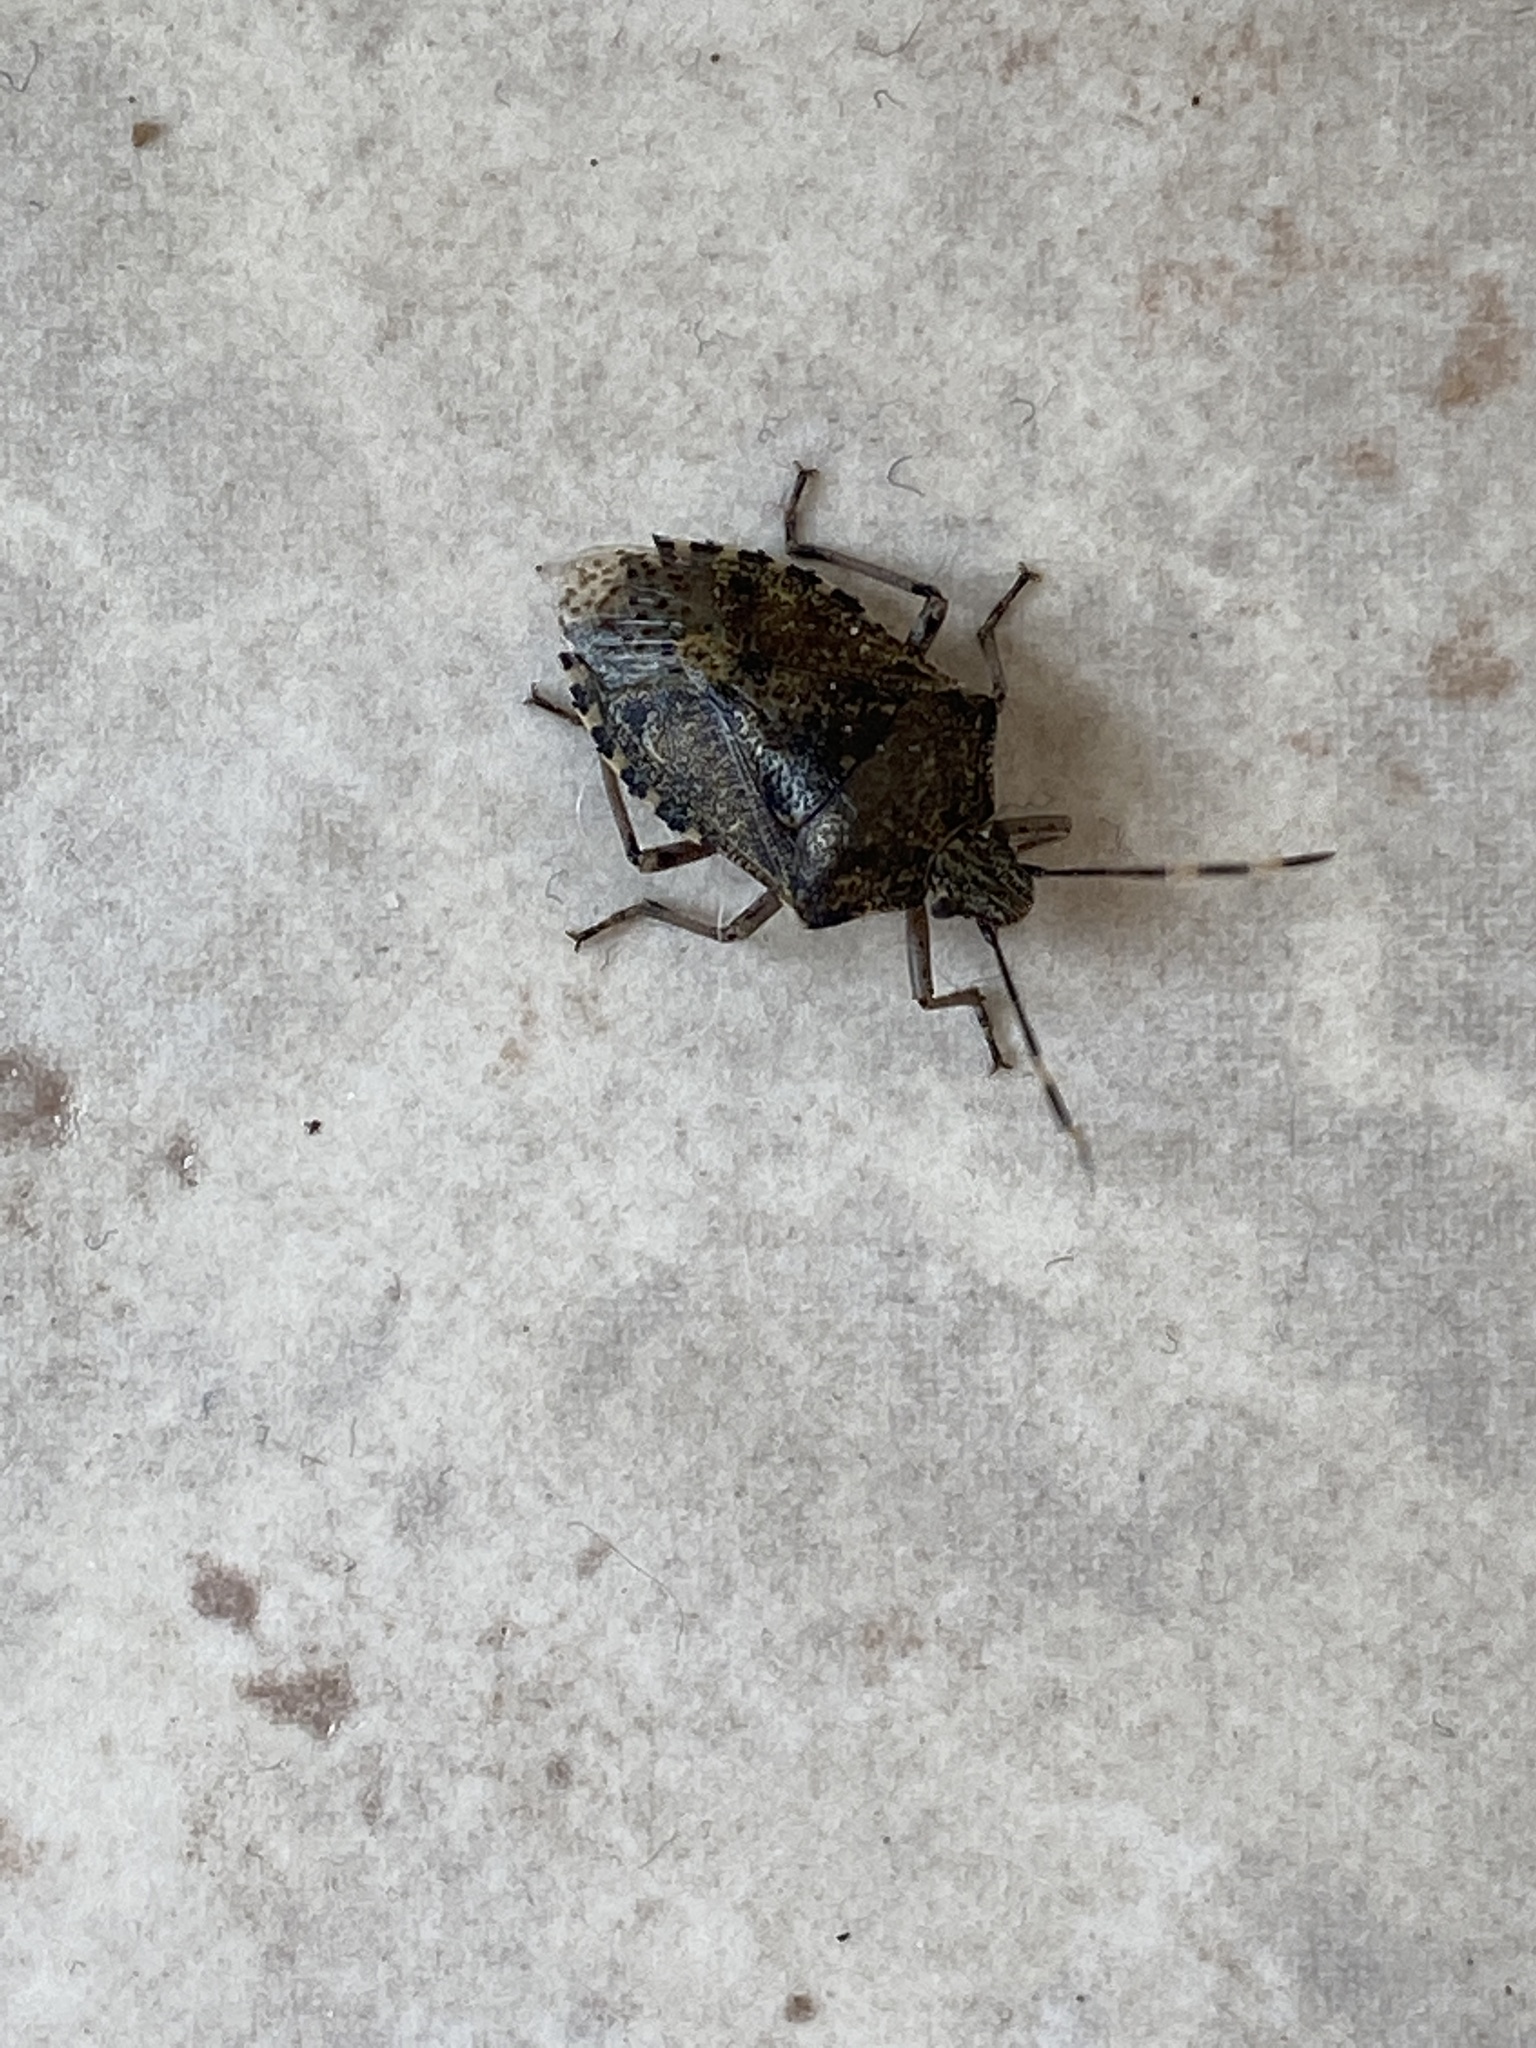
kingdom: Animalia
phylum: Arthropoda
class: Insecta
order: Hemiptera
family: Pentatomidae
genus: Rhaphigaster
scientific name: Rhaphigaster nebulosa
